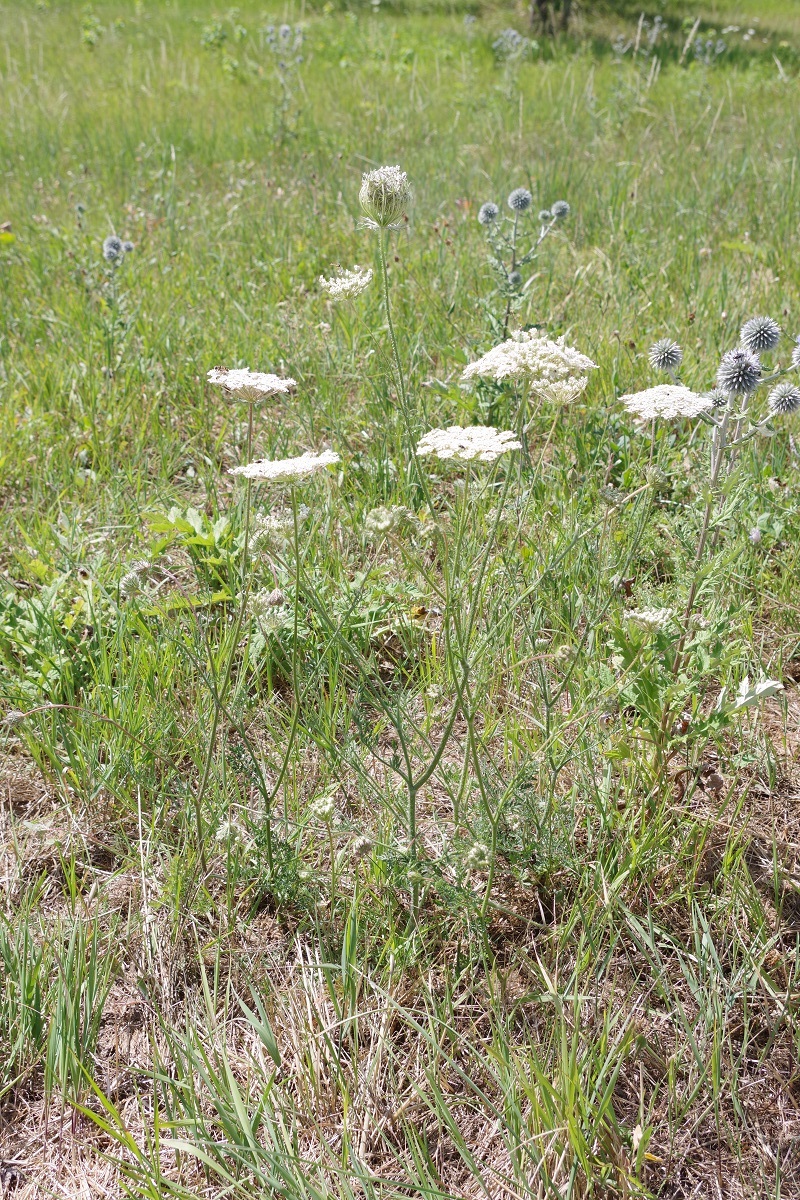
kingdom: Plantae
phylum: Tracheophyta
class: Magnoliopsida
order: Apiales
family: Apiaceae
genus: Daucus
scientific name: Daucus carota
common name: Wild carrot
